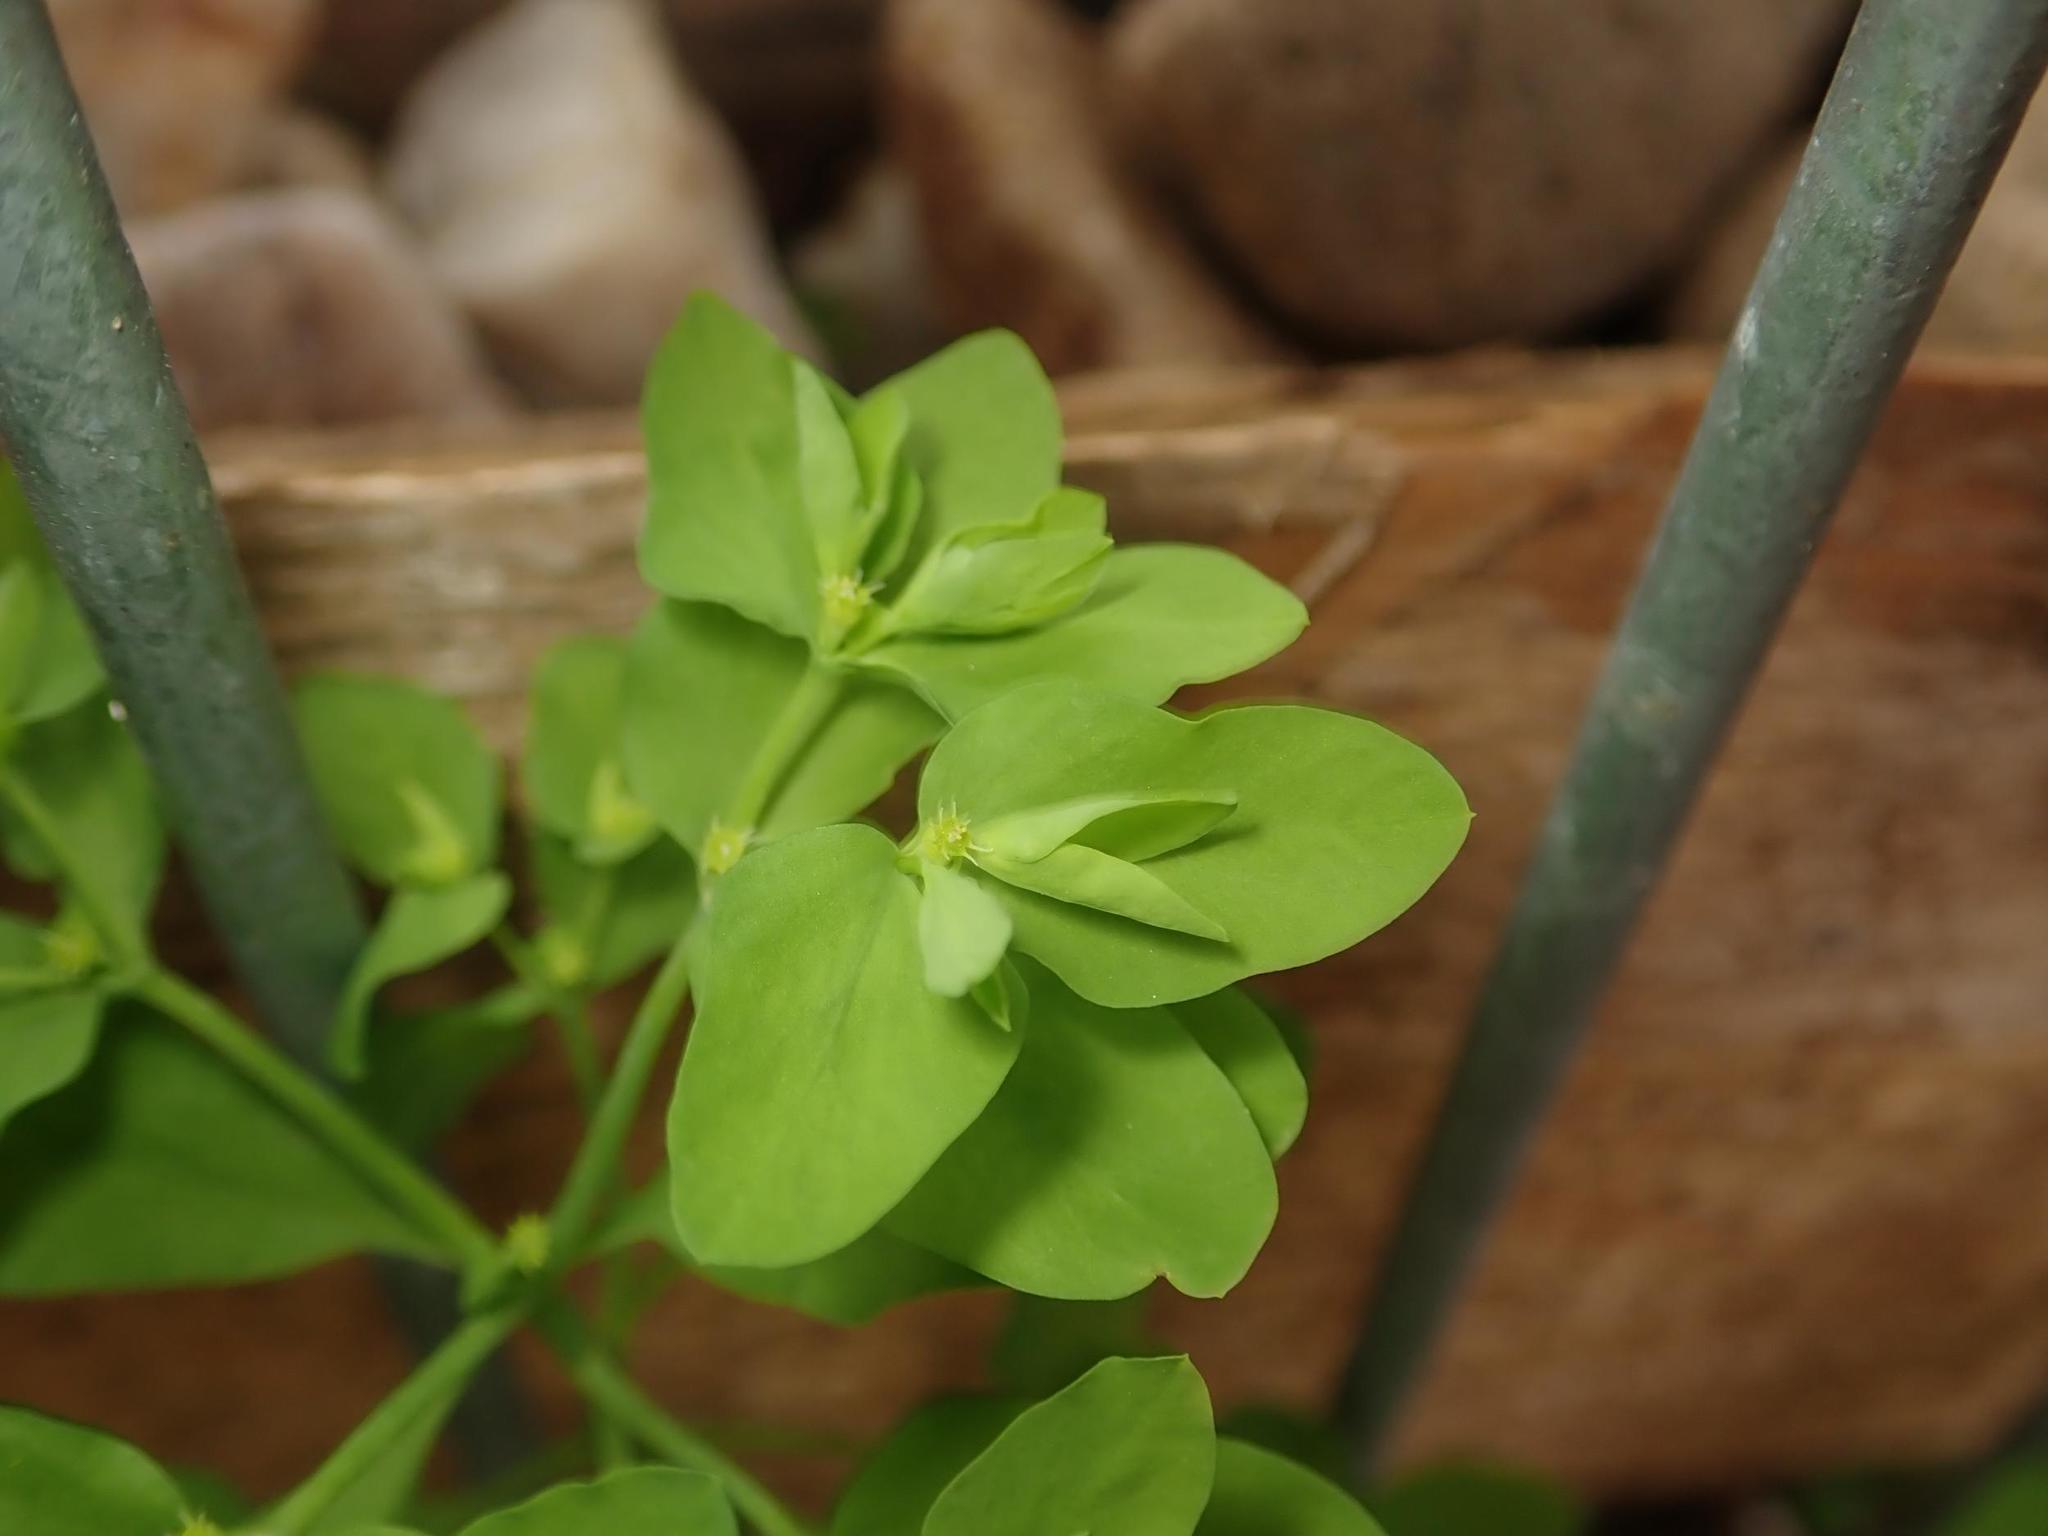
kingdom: Plantae
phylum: Tracheophyta
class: Magnoliopsida
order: Malpighiales
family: Euphorbiaceae
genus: Euphorbia
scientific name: Euphorbia peplus
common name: Petty spurge
